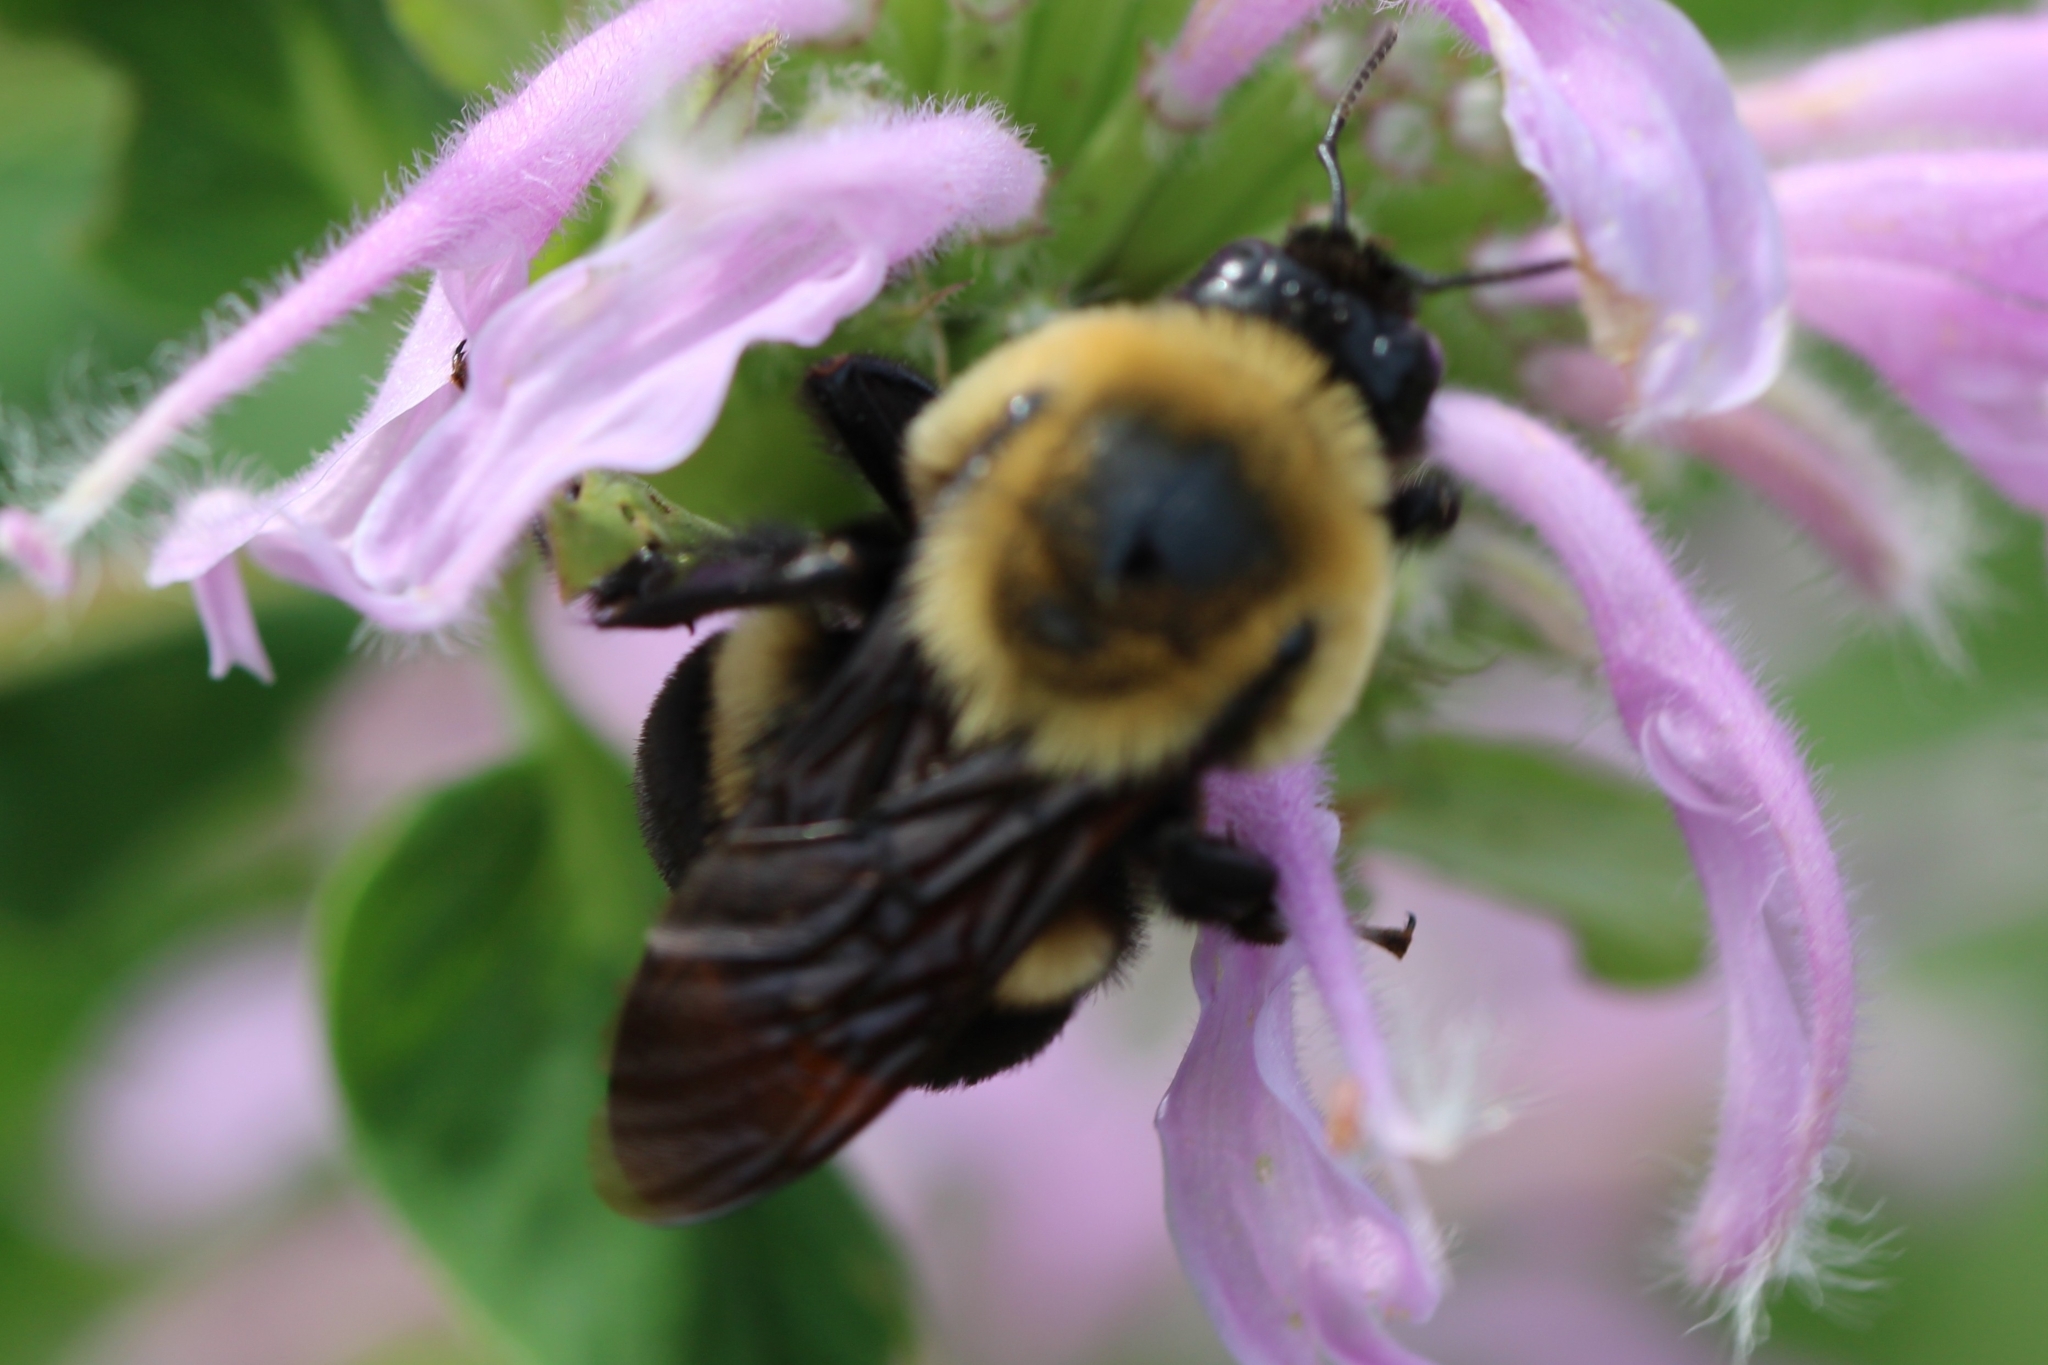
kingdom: Animalia
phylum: Arthropoda
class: Insecta
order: Hymenoptera
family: Apidae
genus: Bombus
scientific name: Bombus griseocollis
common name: Brown-belted bumble bee
